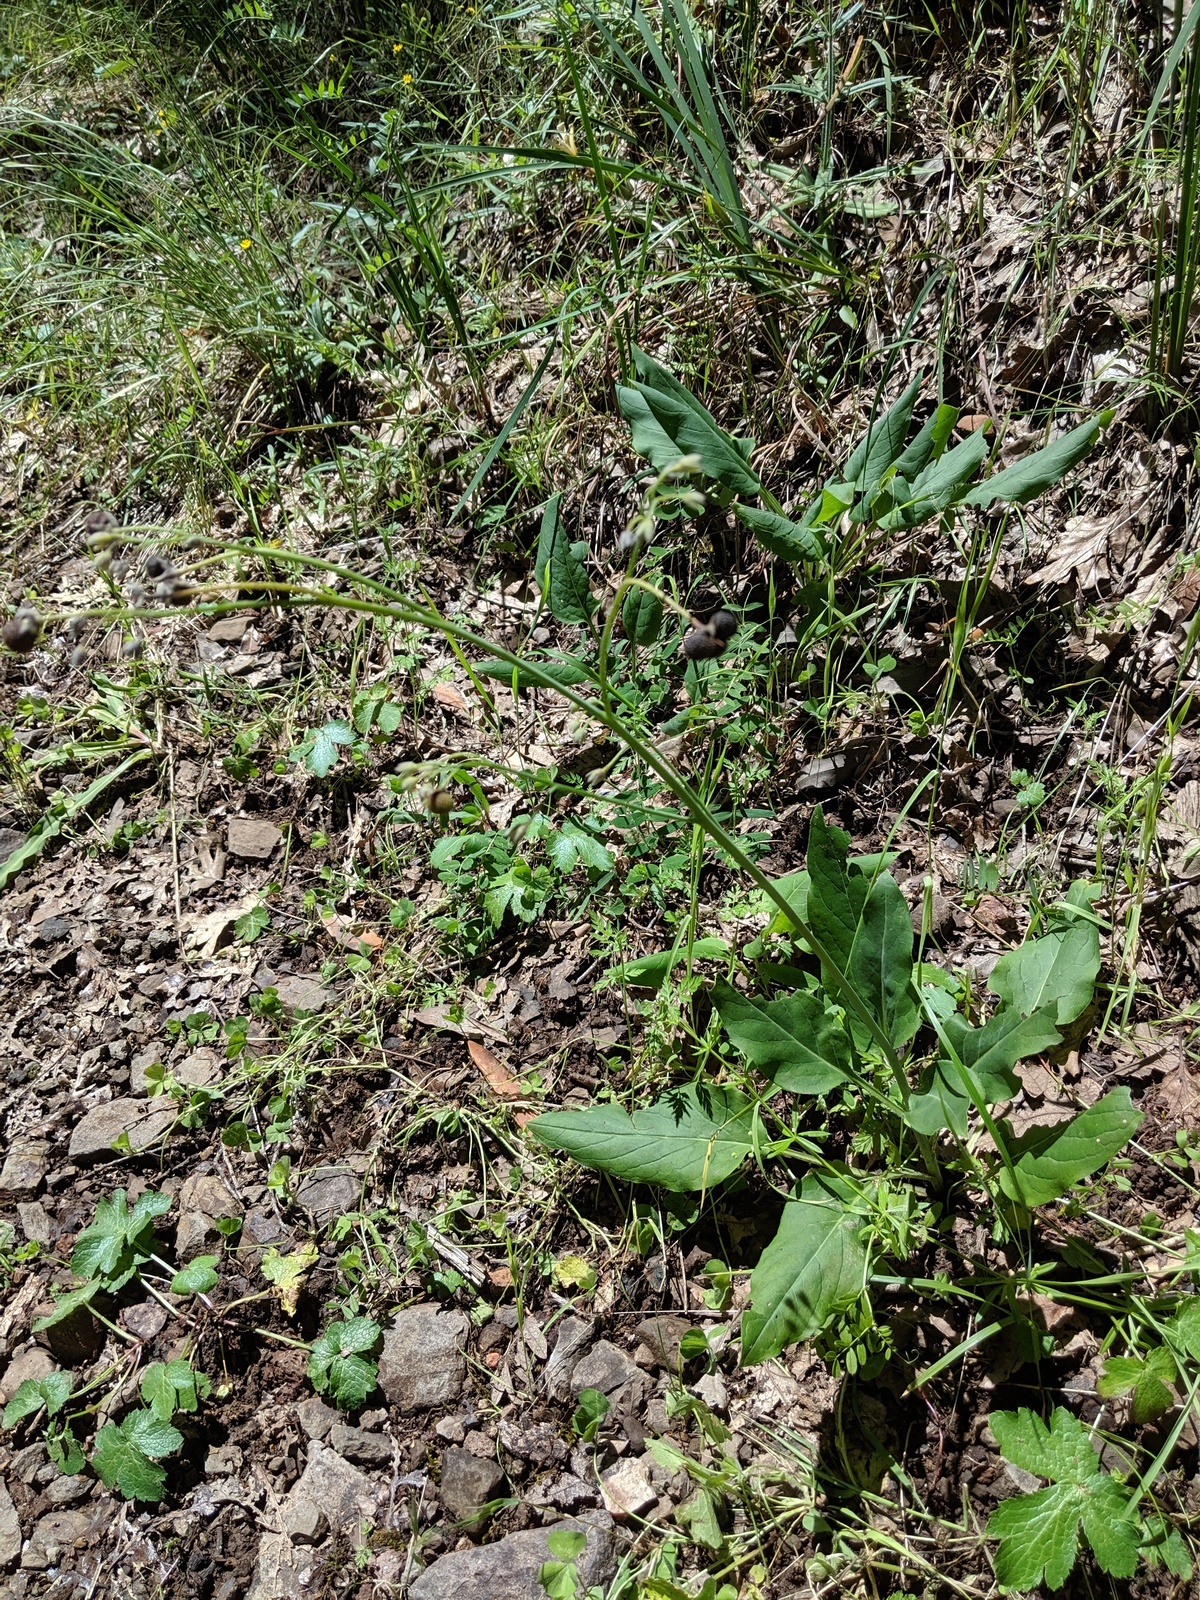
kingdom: Plantae
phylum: Tracheophyta
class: Magnoliopsida
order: Boraginales
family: Boraginaceae
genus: Adelinia
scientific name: Adelinia grande
